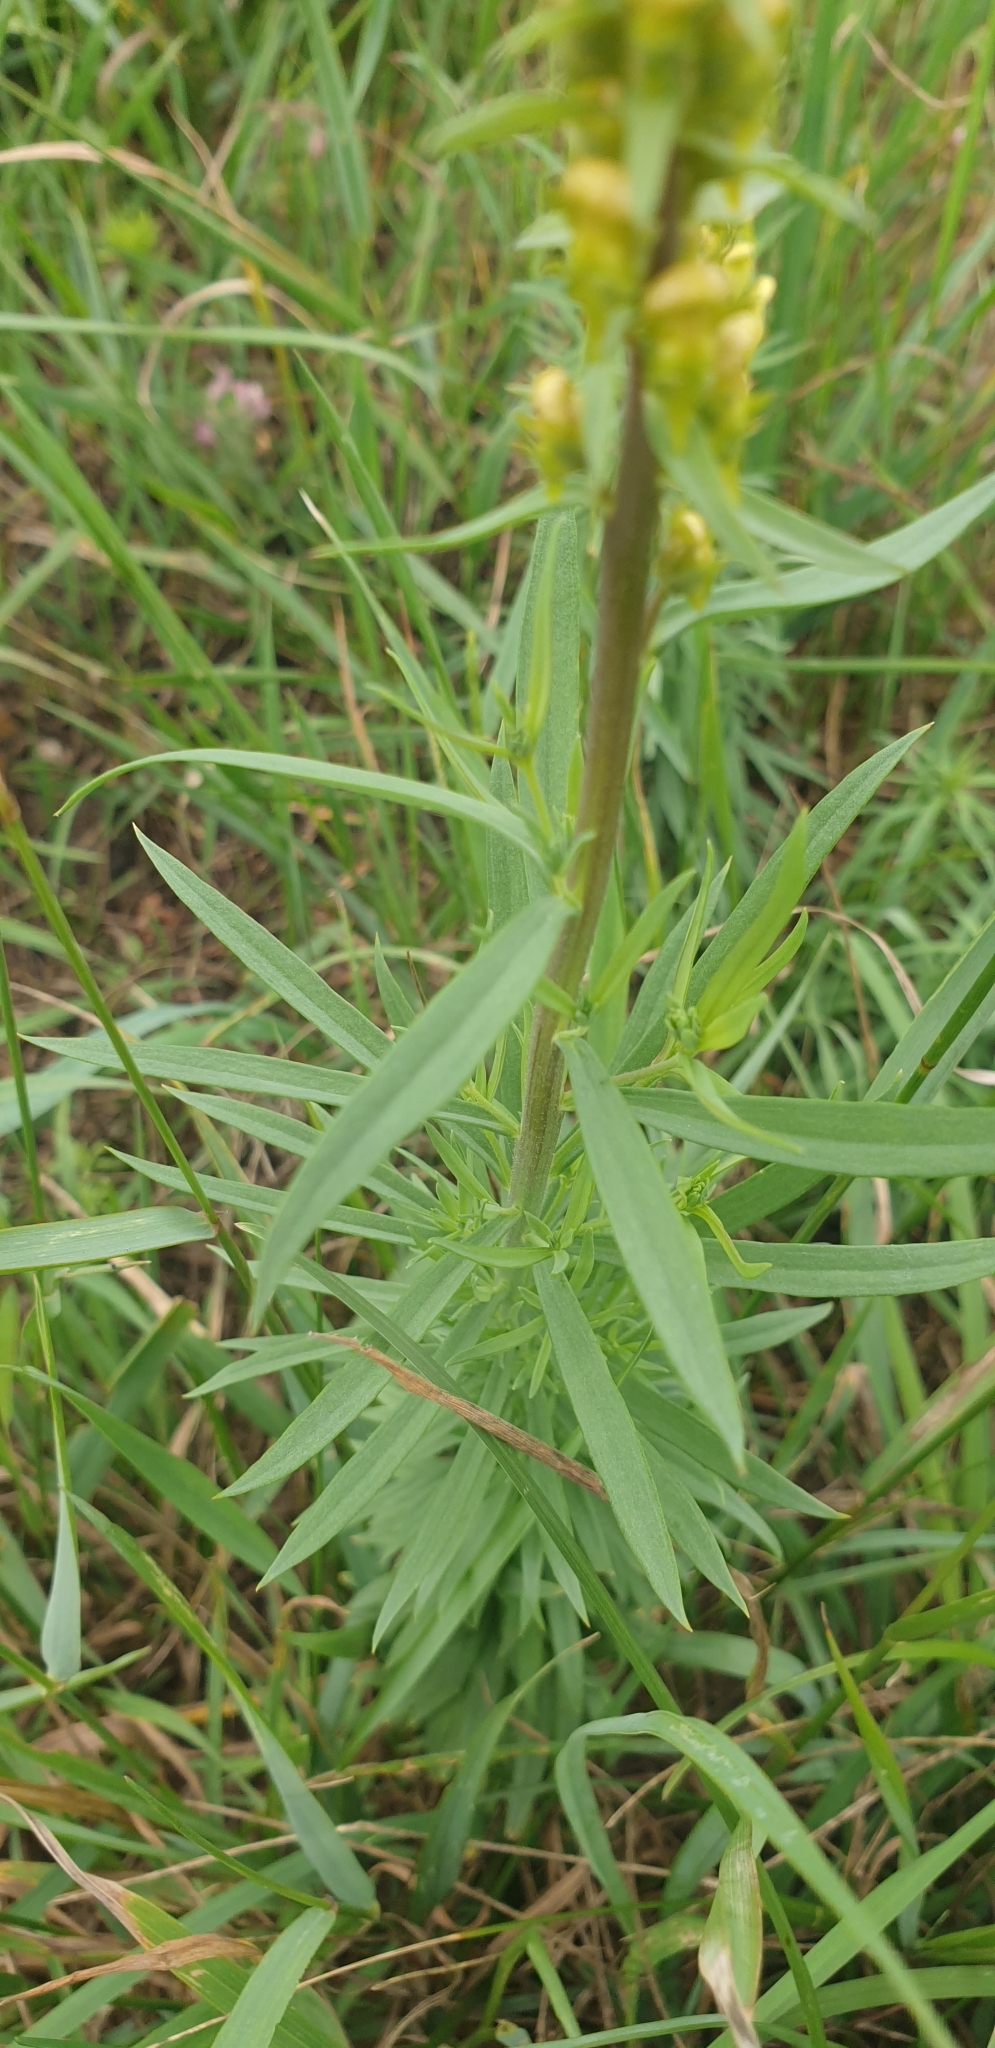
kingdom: Plantae
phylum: Tracheophyta
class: Magnoliopsida
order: Lamiales
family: Plantaginaceae
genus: Linaria
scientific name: Linaria vulgaris
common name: Butter and eggs
